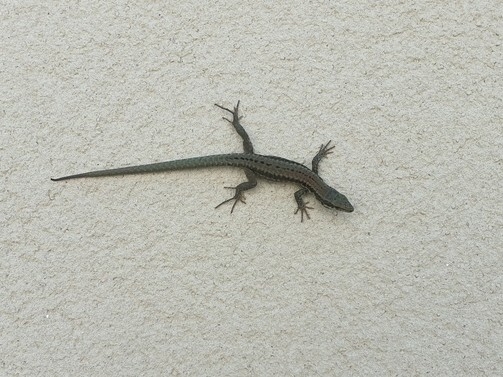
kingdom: Animalia
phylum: Chordata
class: Squamata
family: Lacertidae
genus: Podarcis
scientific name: Podarcis muralis
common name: Common wall lizard
